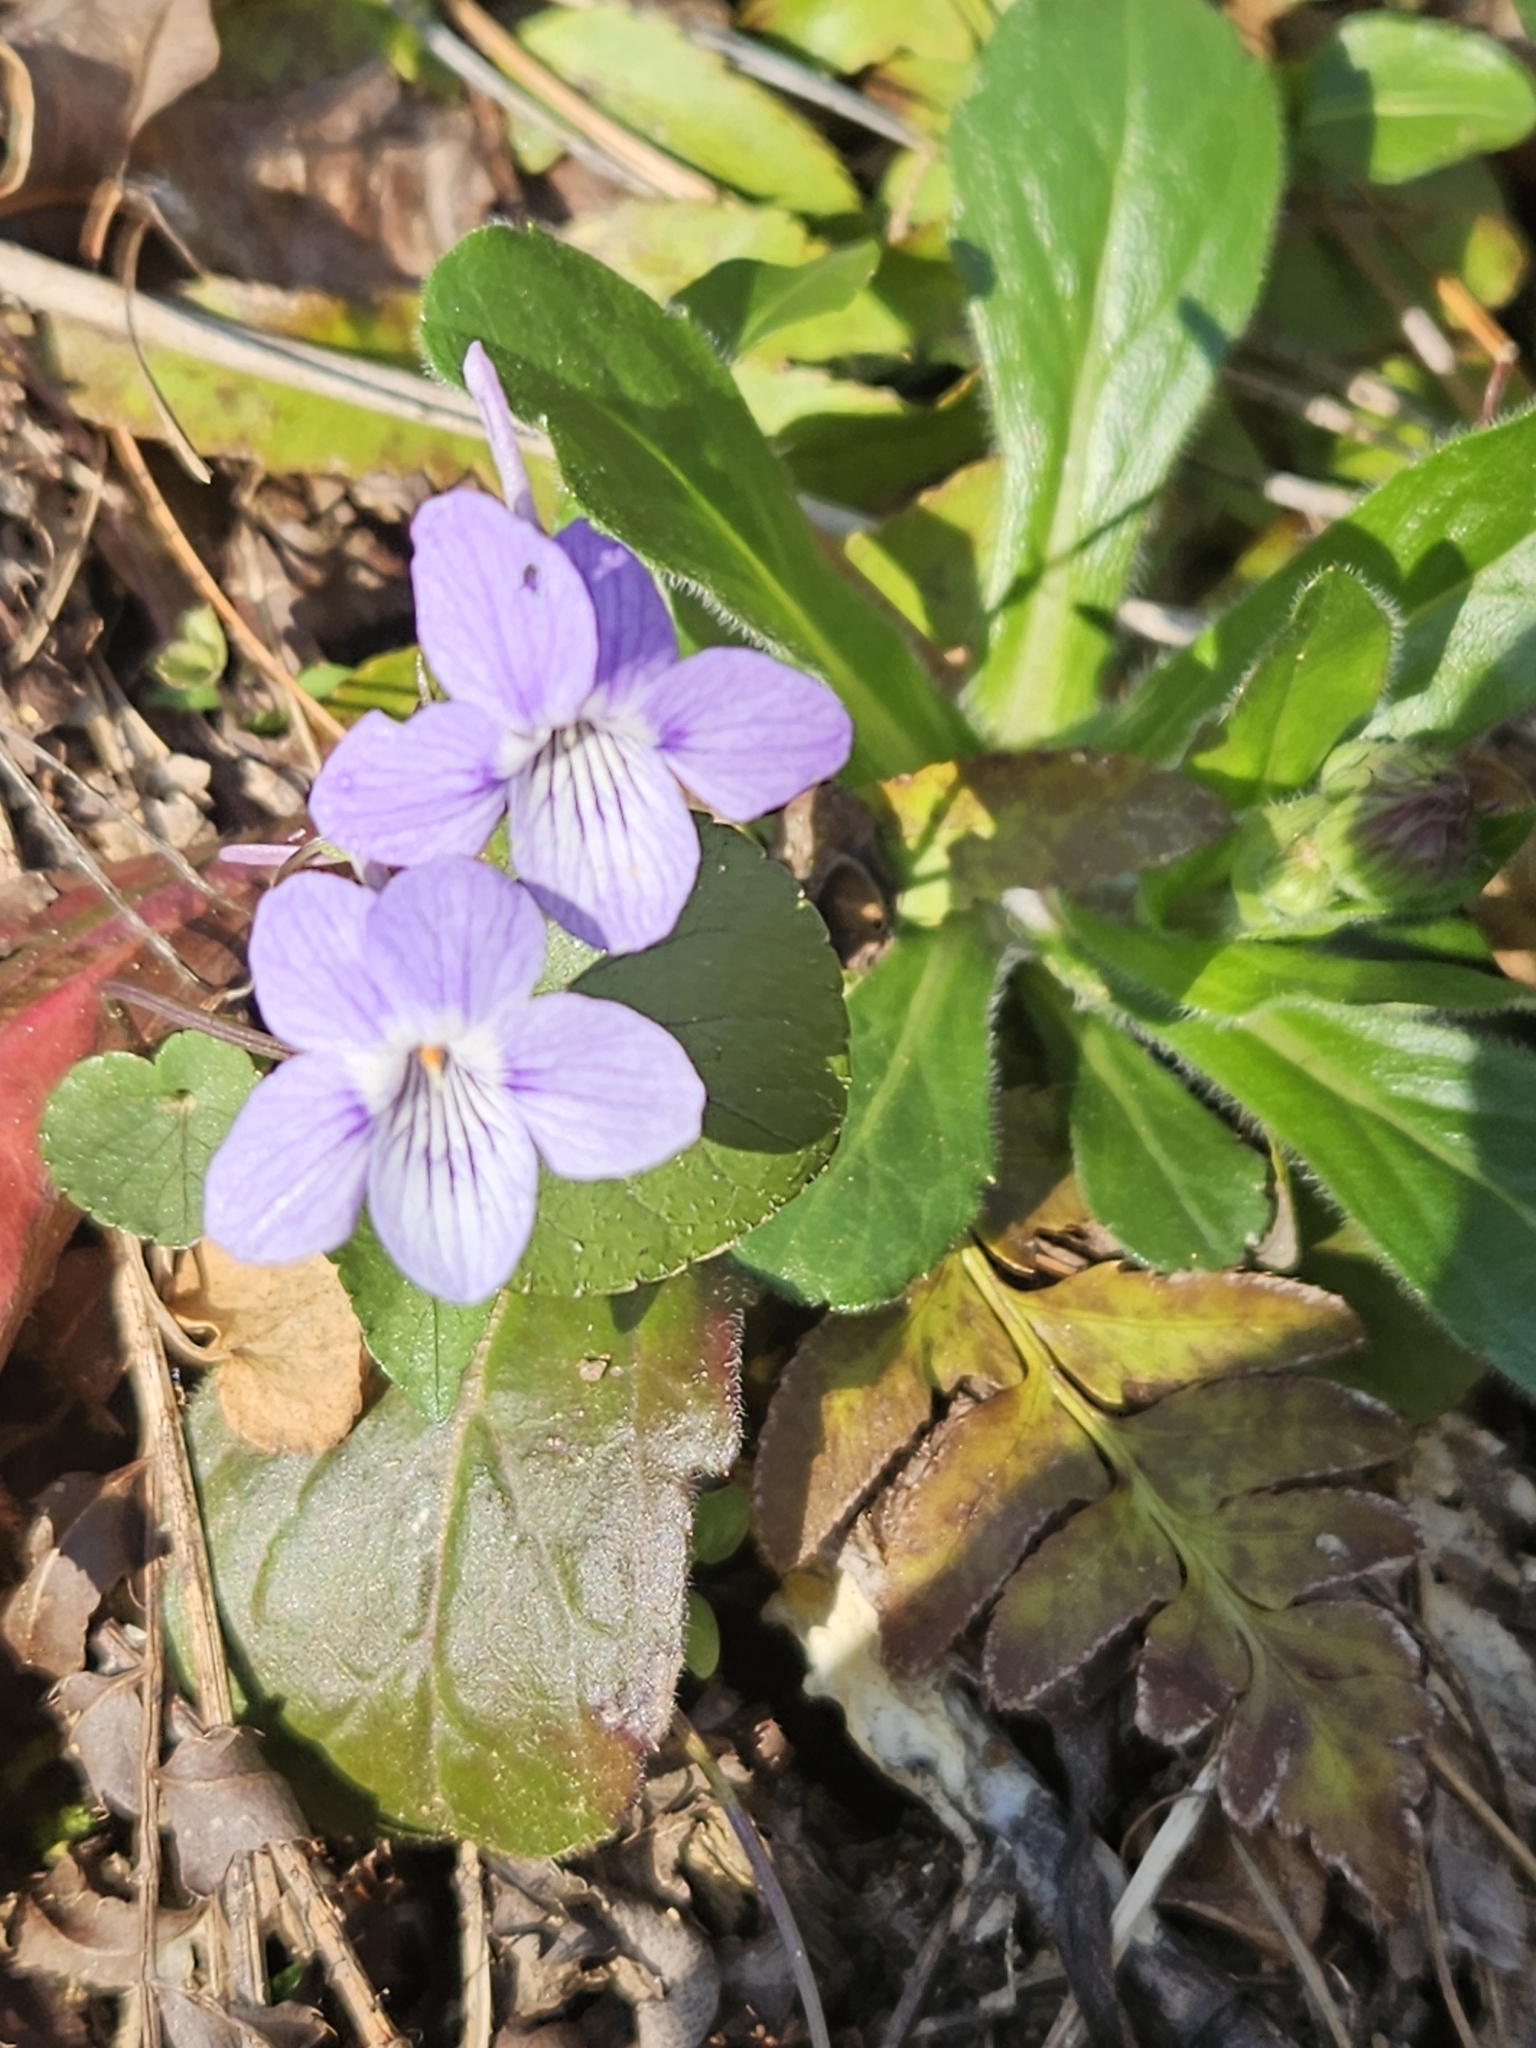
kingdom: Plantae
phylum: Tracheophyta
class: Magnoliopsida
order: Malpighiales
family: Violaceae
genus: Viola
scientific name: Viola rostrata
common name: Long-spur violet
